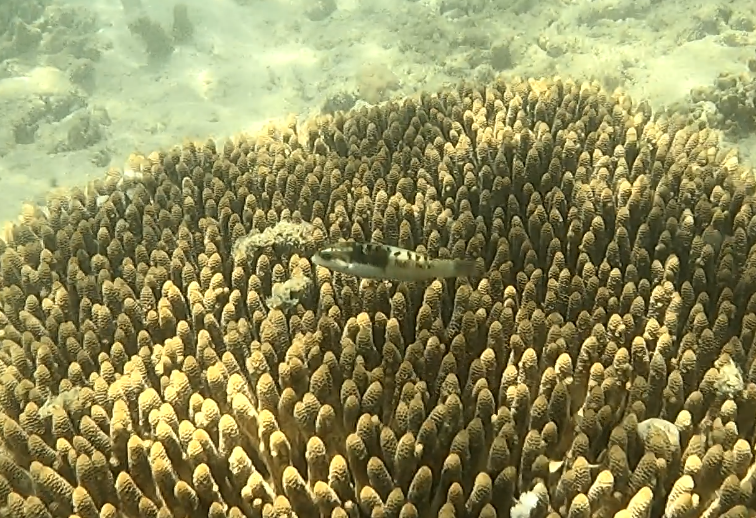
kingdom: Animalia
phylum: Chordata
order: Perciformes
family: Labridae
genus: Thalassoma
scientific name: Thalassoma nigrofasciatum
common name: Black-barred wrasse
